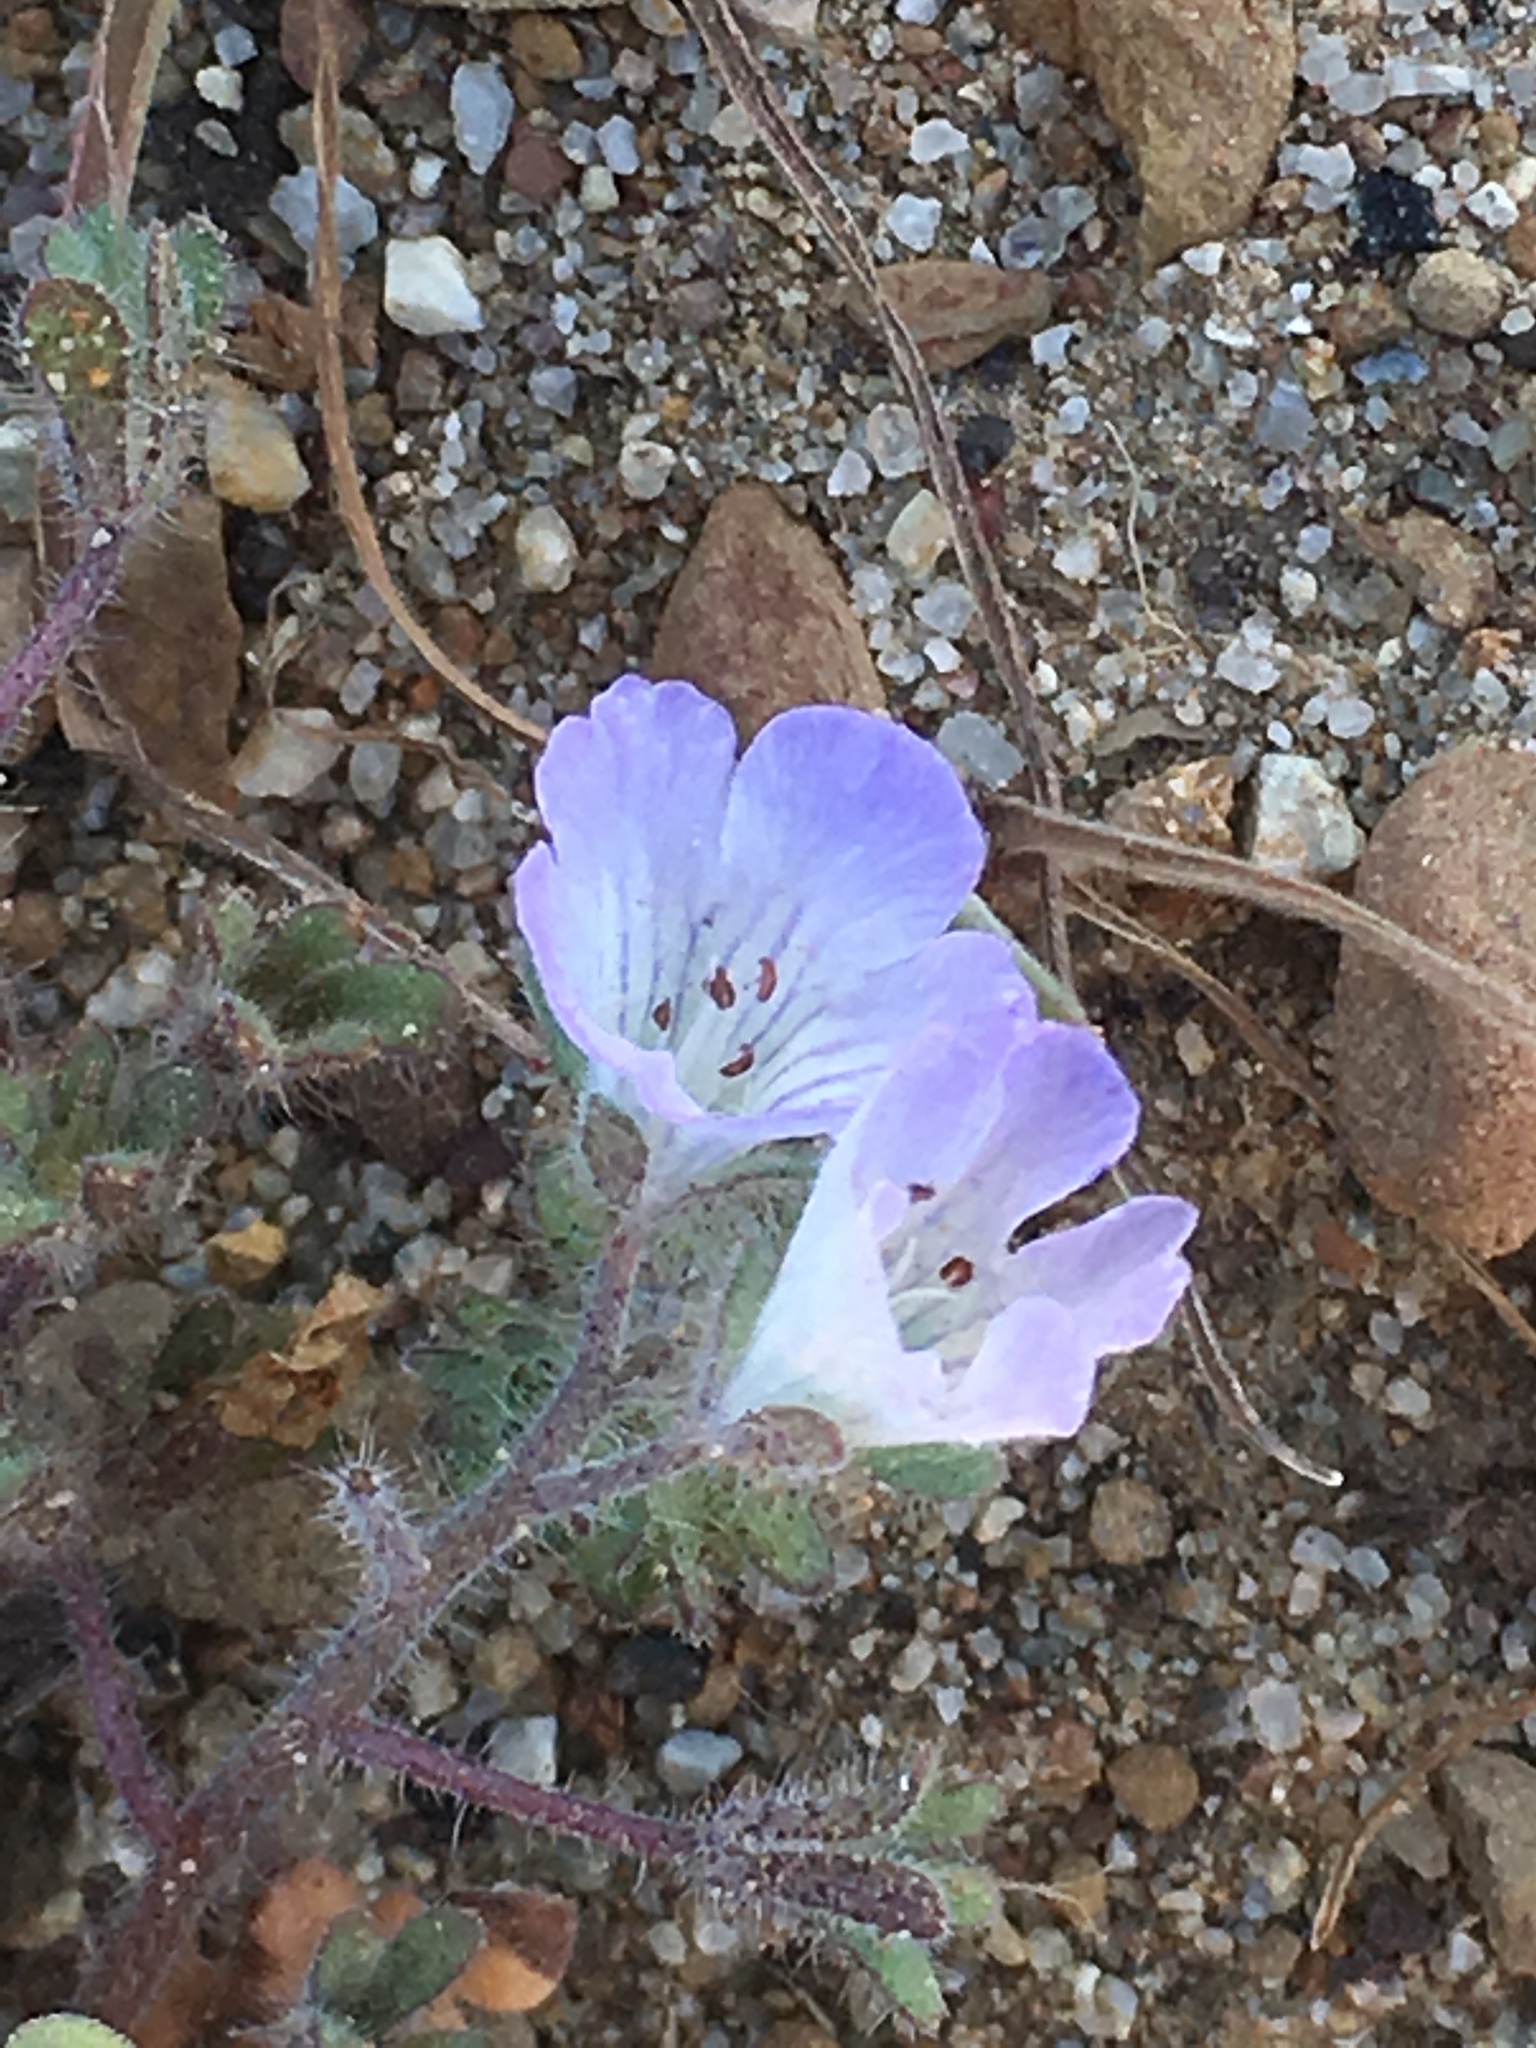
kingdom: Plantae
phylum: Tracheophyta
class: Magnoliopsida
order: Boraginales
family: Hydrophyllaceae
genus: Phacelia
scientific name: Phacelia douglasii
